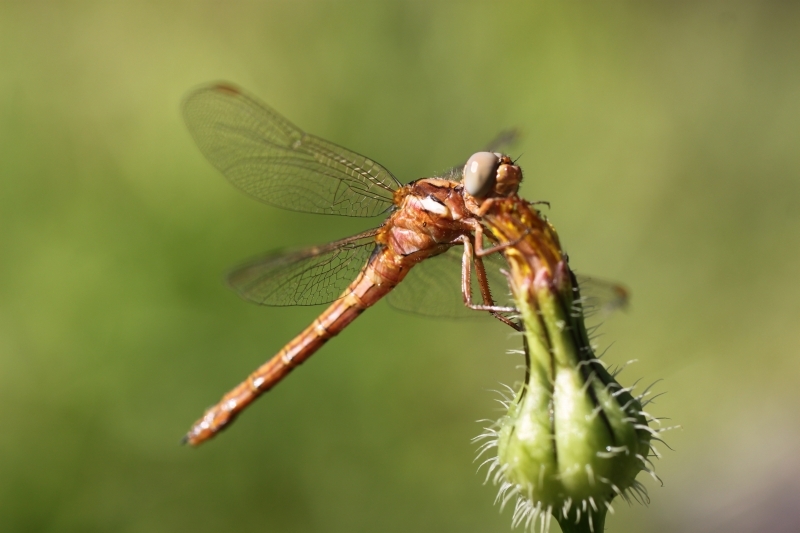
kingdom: Animalia
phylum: Arthropoda
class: Insecta
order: Odonata
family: Libellulidae
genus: Orthetrum
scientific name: Orthetrum chrysostigma
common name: Epaulet skimmer
